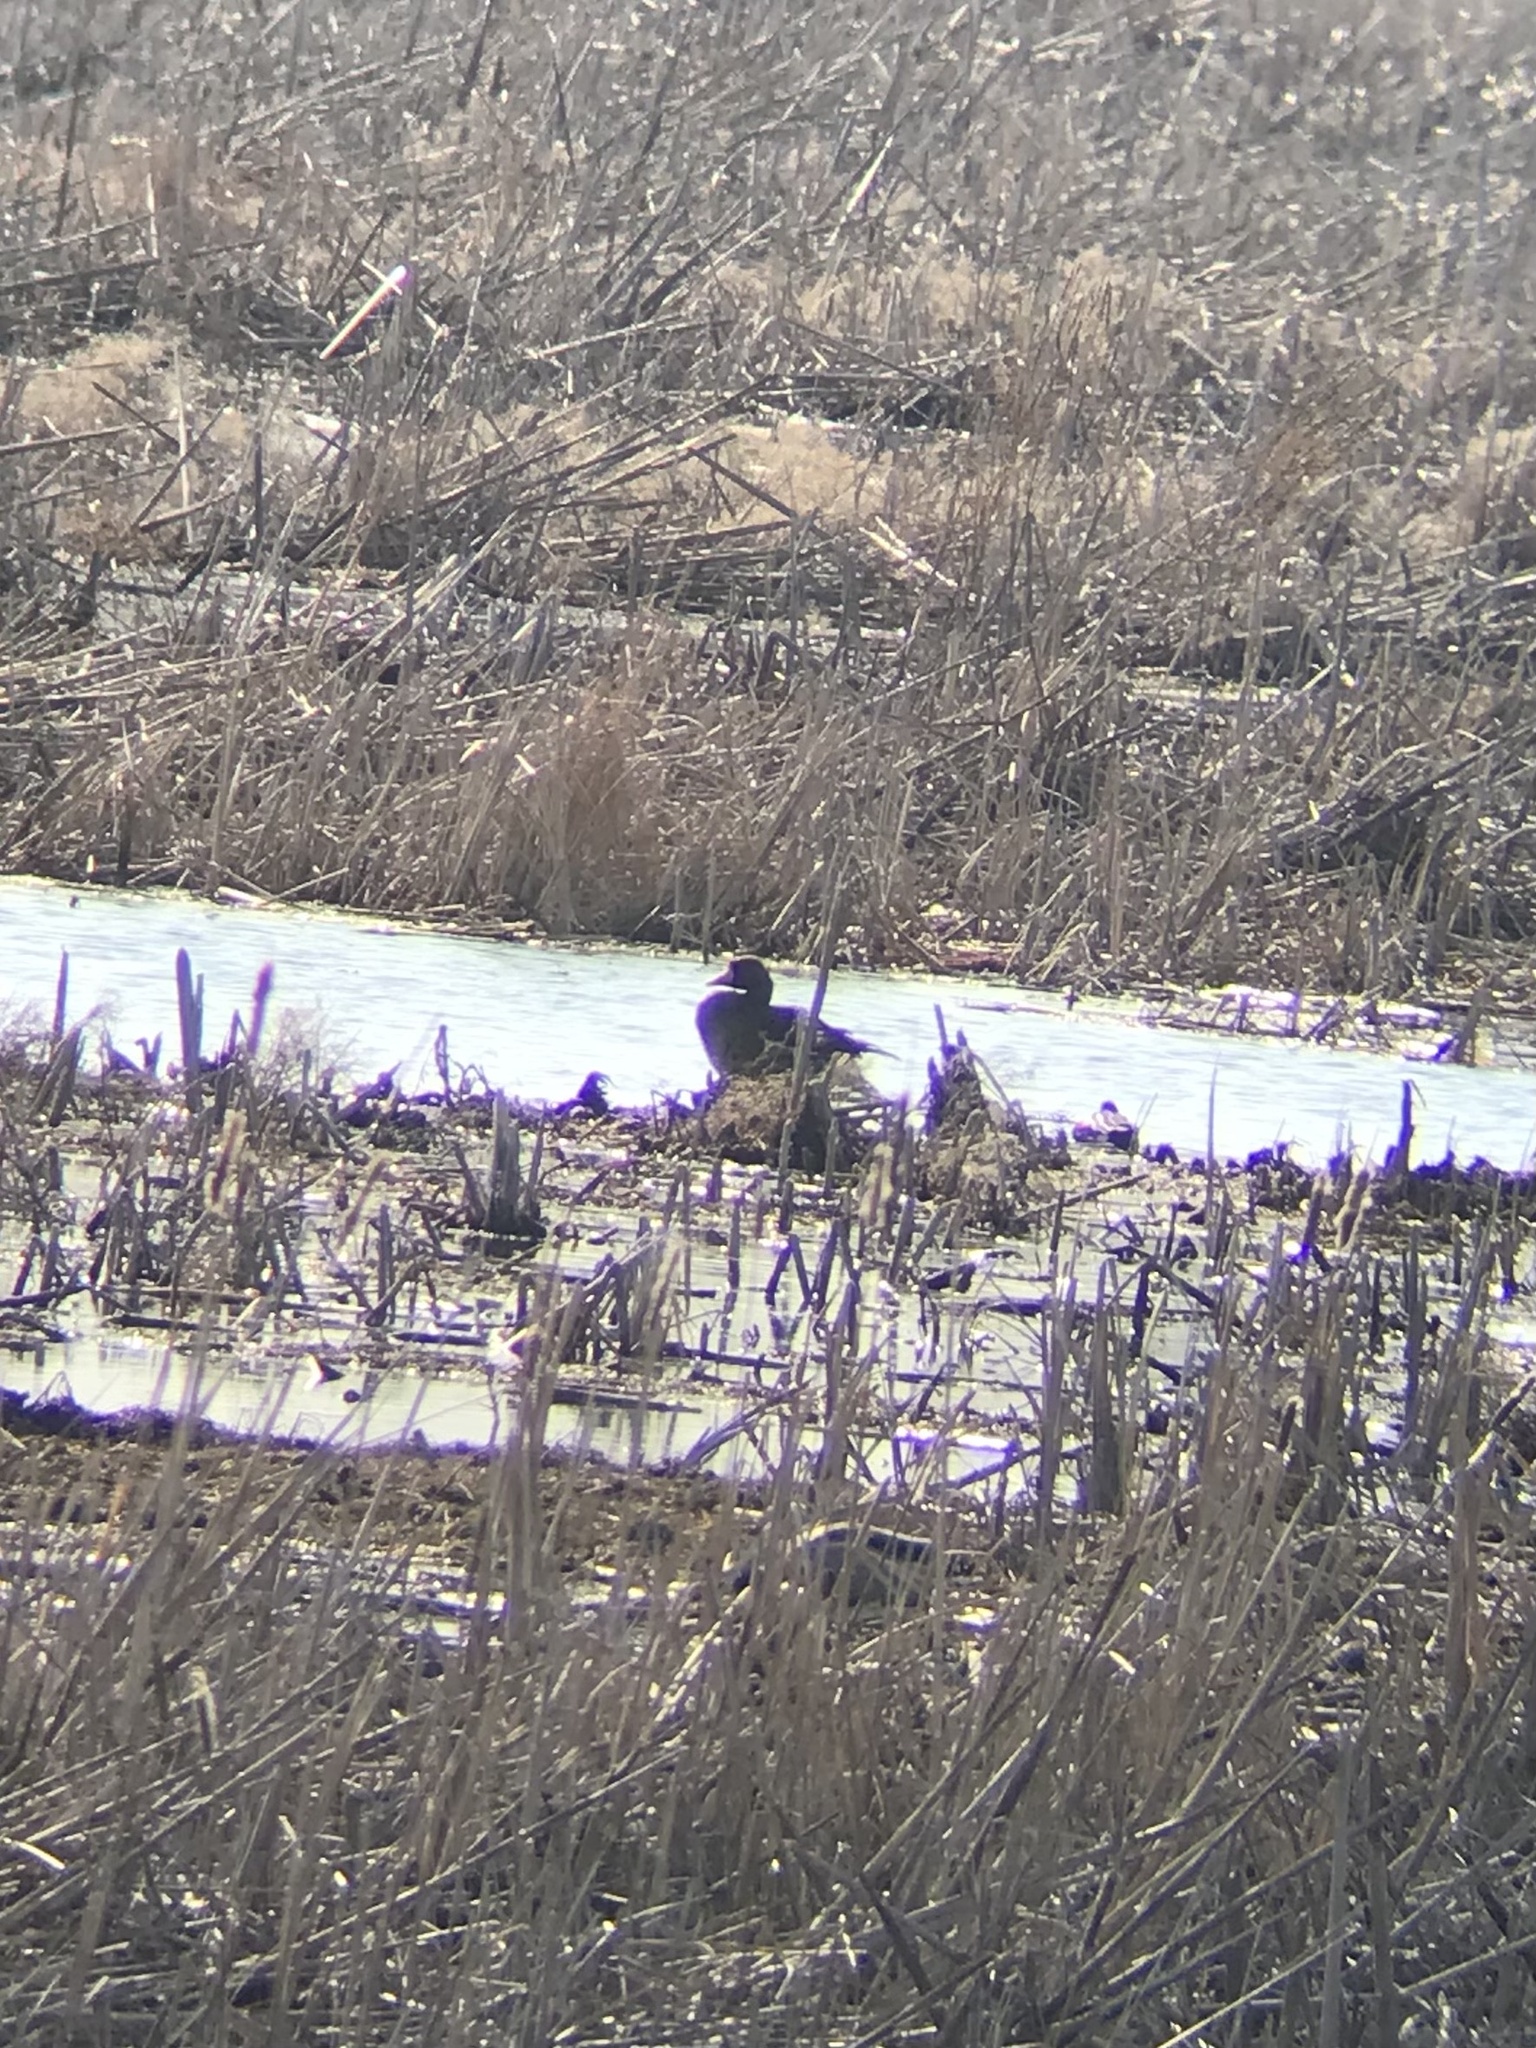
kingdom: Animalia
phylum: Chordata
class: Aves
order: Anseriformes
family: Anatidae
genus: Anser
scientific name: Anser albifrons
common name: Greater white-fronted goose
